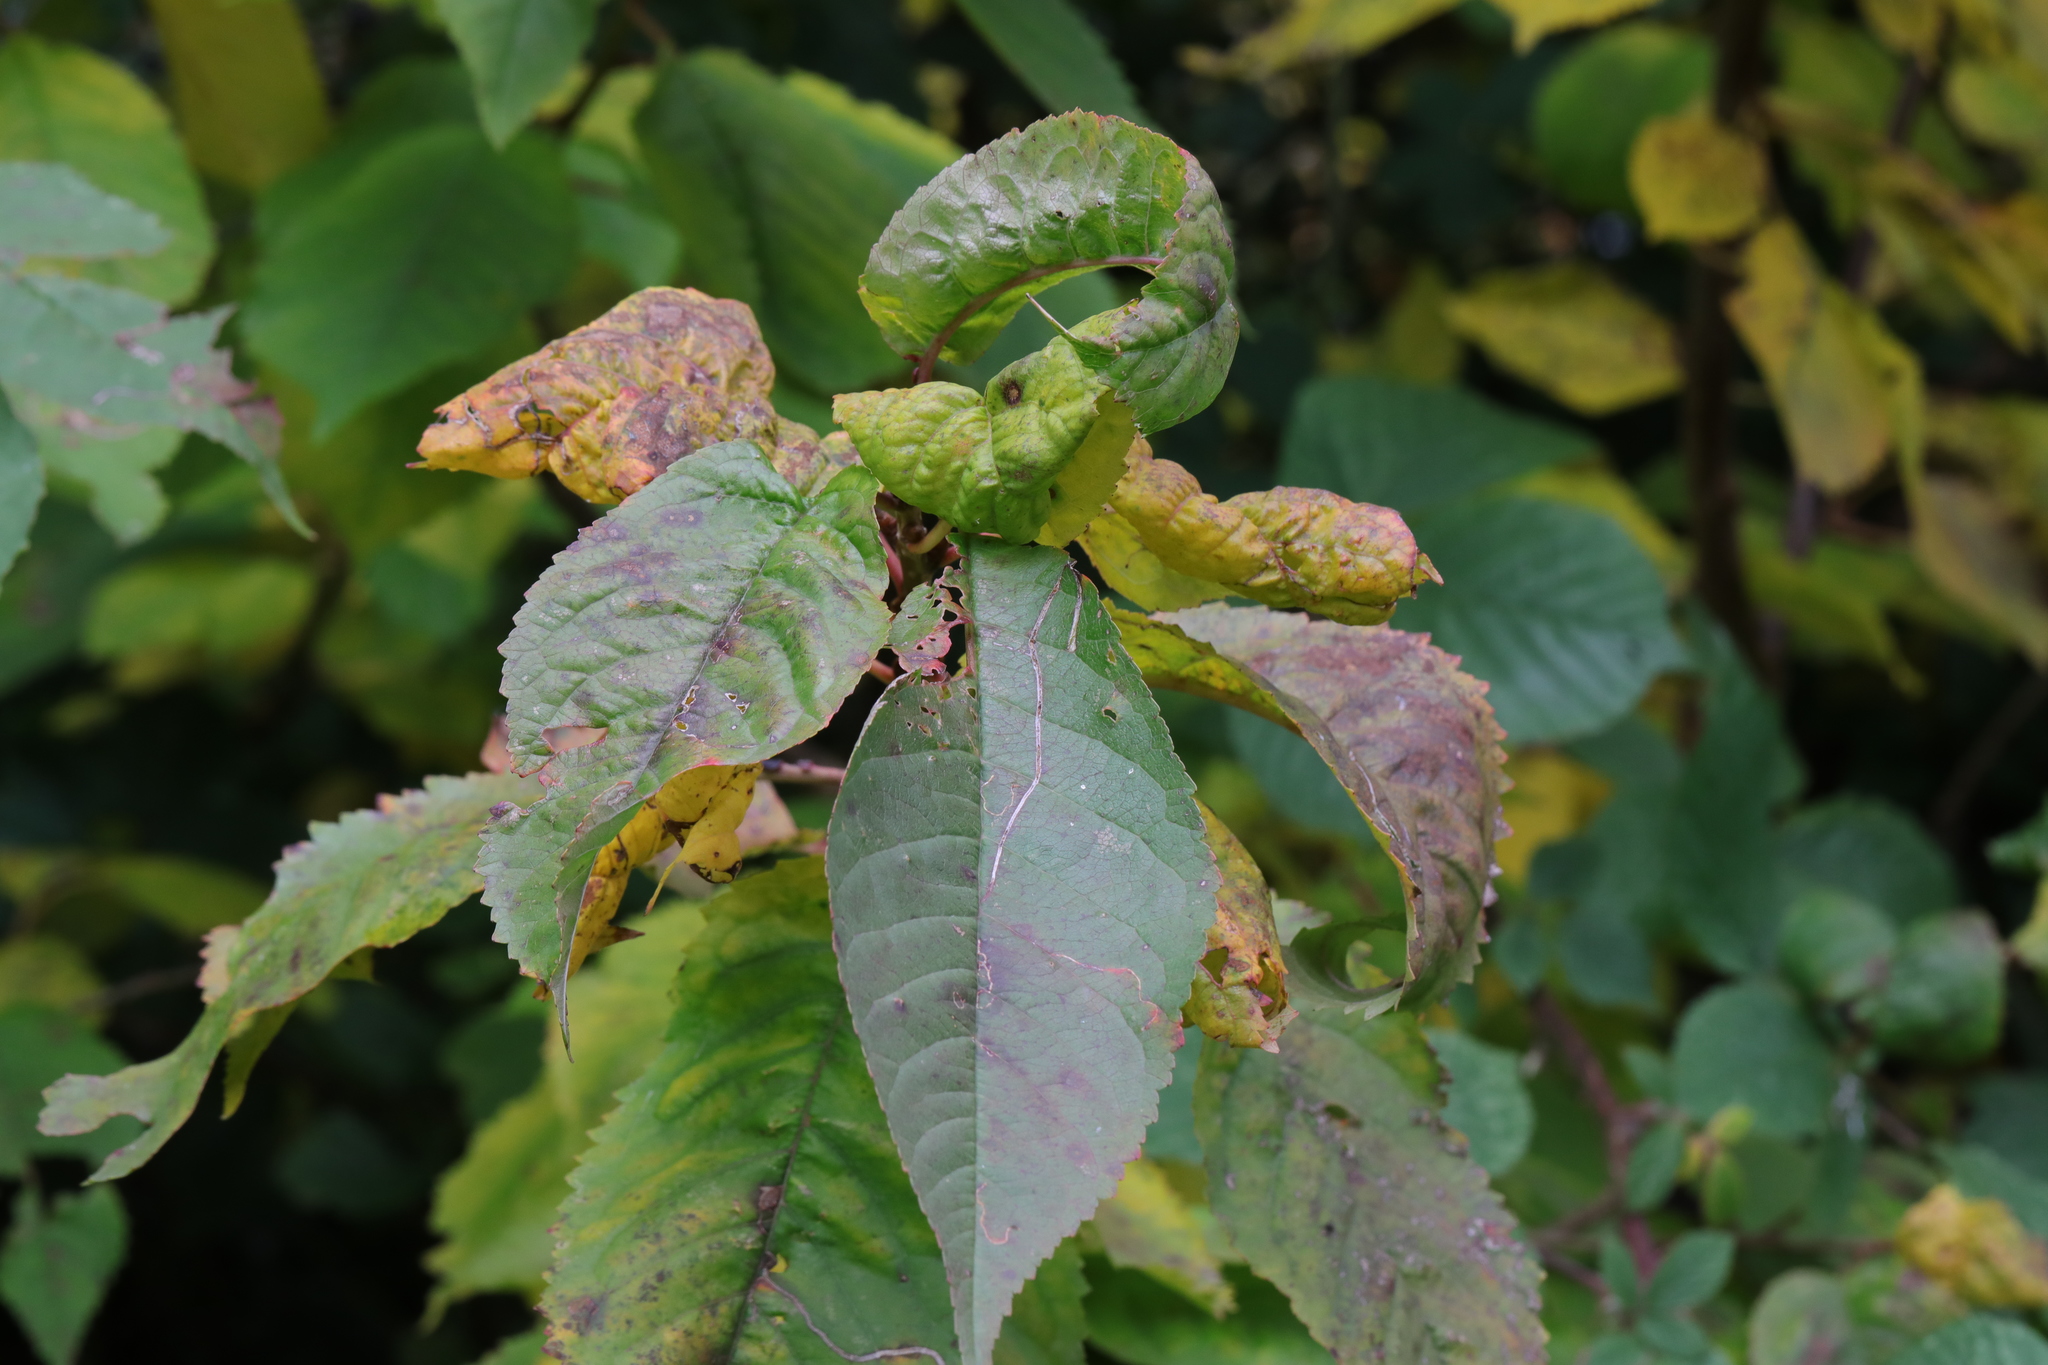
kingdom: Animalia
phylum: Arthropoda
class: Insecta
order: Hemiptera
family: Aphididae
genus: Myzus
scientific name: Myzus cerasi
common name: Black cherry aphid
